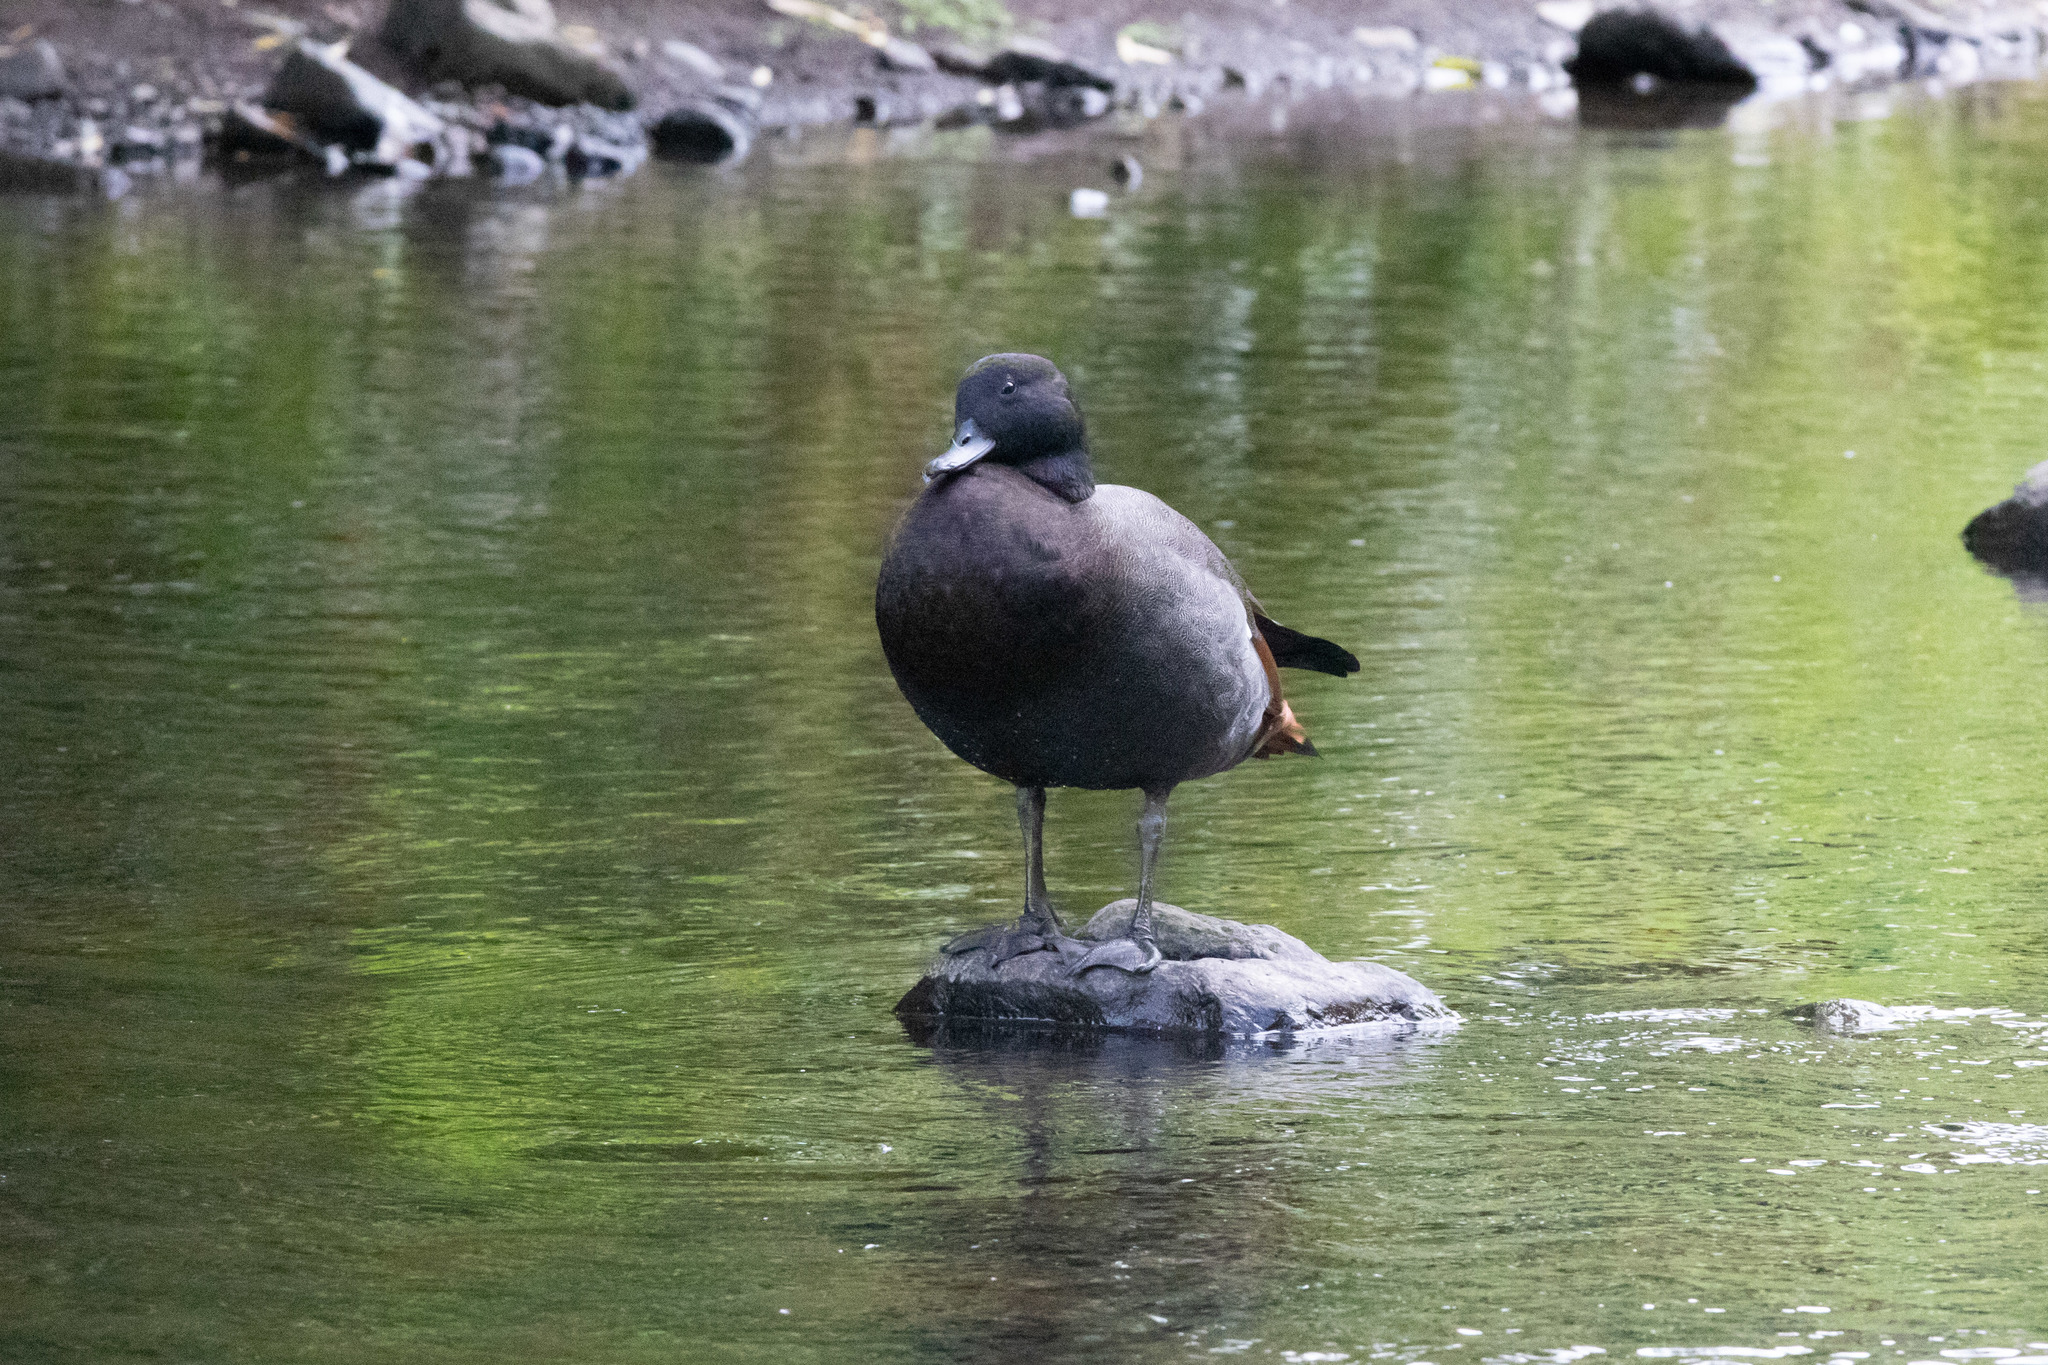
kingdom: Animalia
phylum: Chordata
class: Aves
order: Anseriformes
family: Anatidae
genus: Tadorna
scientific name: Tadorna variegata
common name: Paradise shelduck
